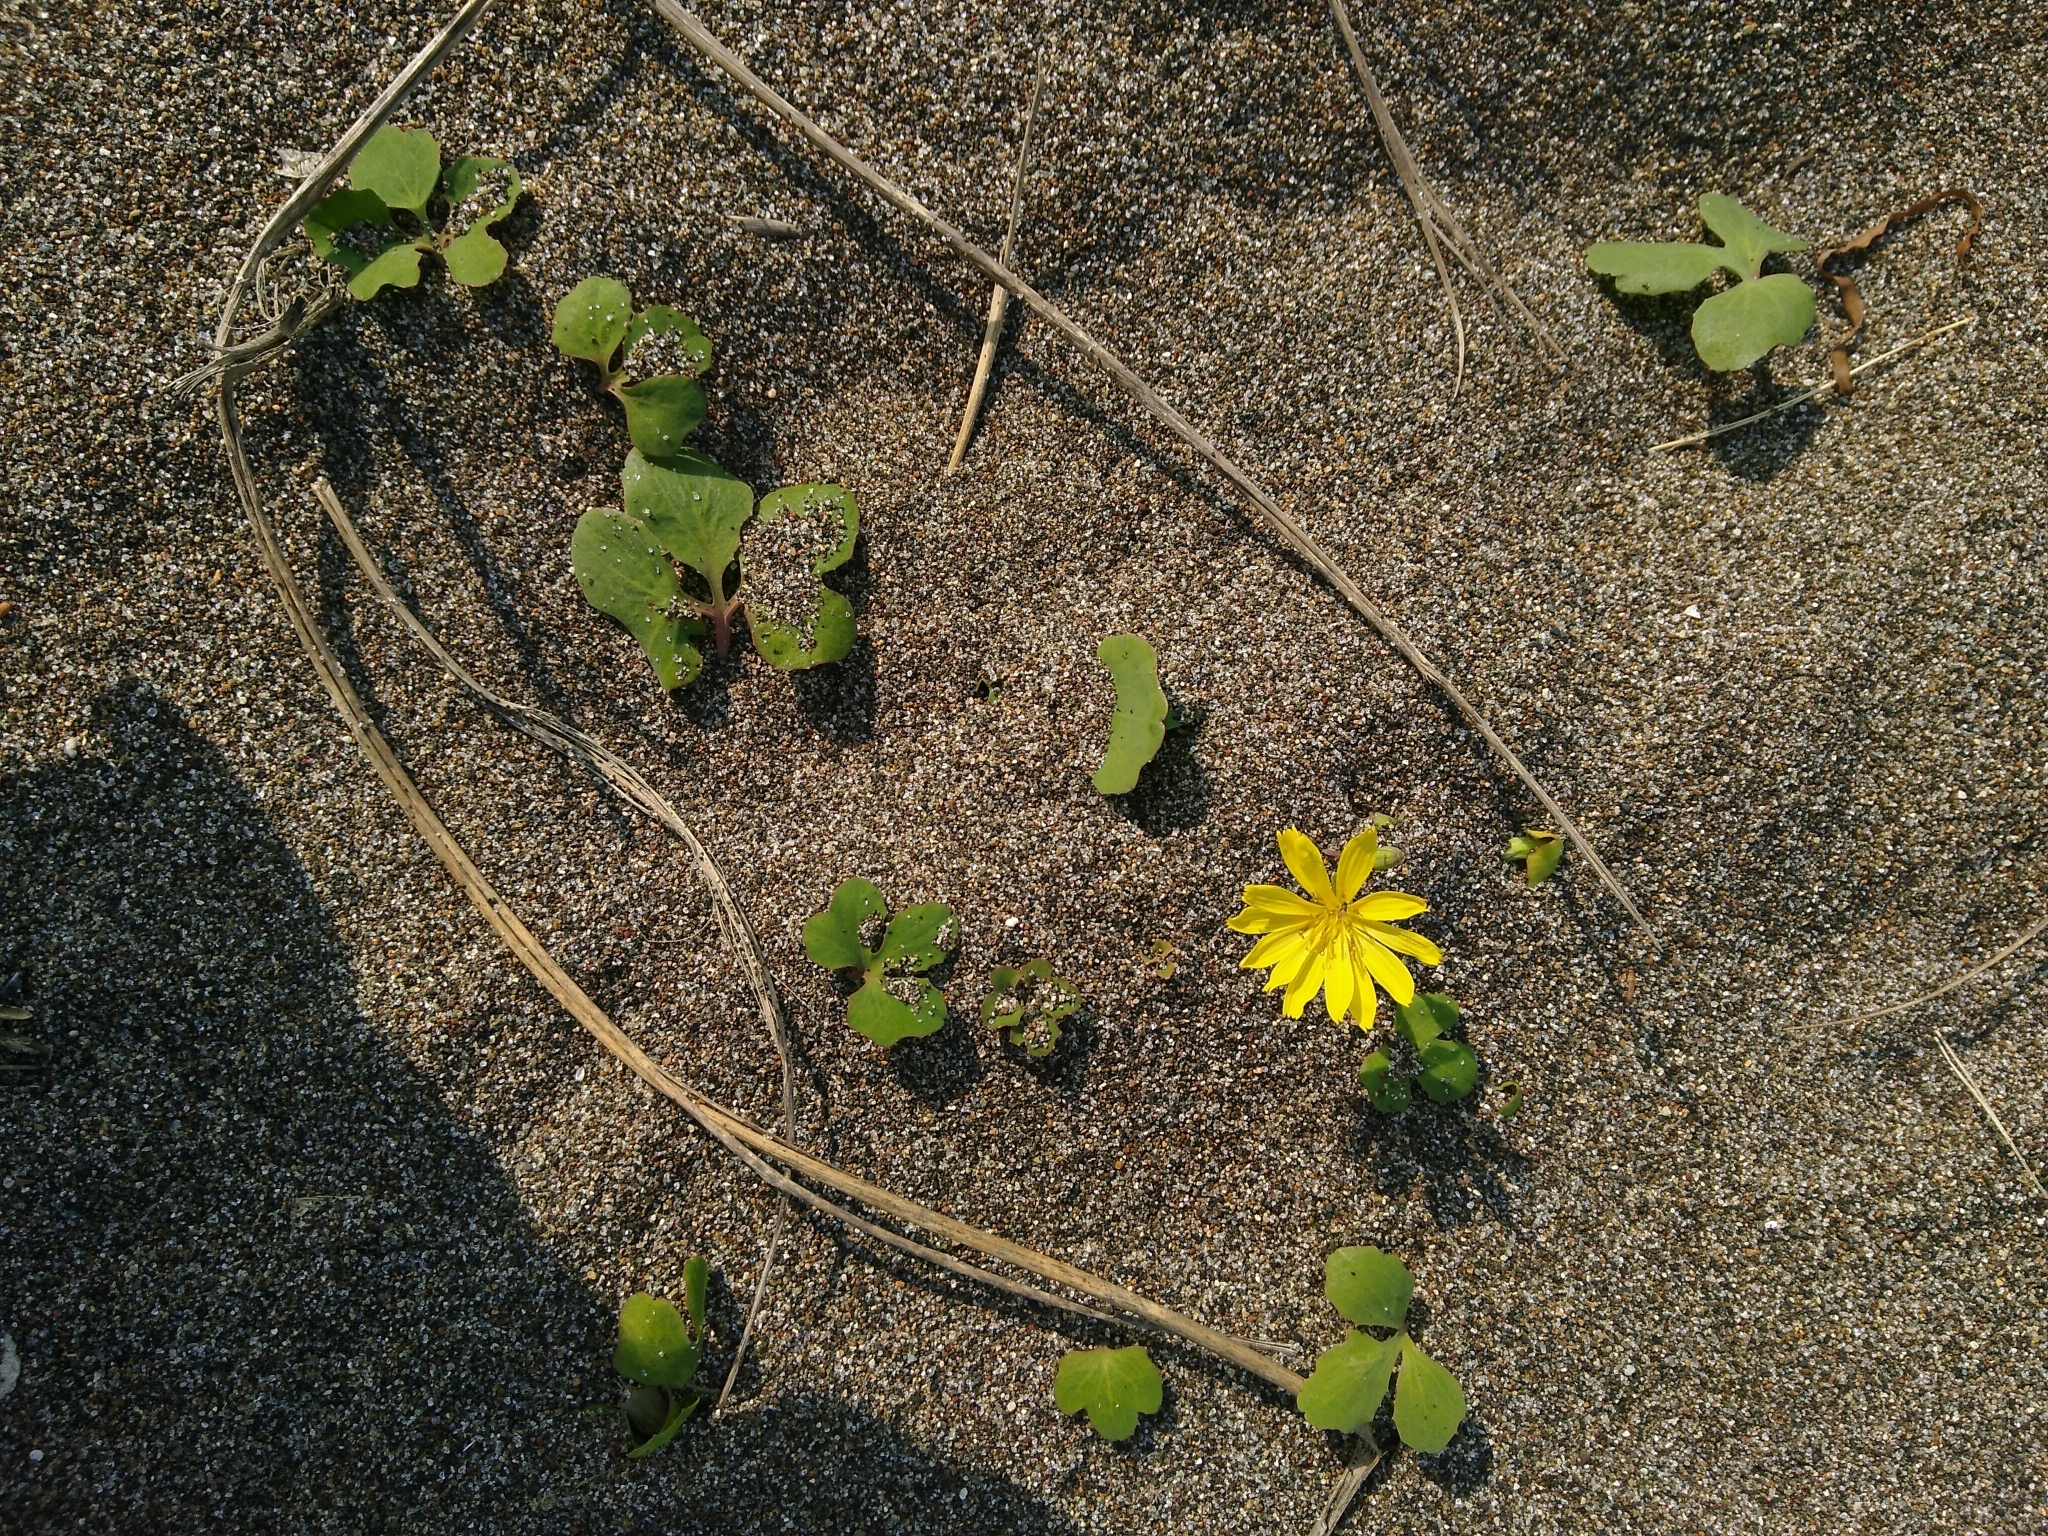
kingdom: Plantae
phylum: Tracheophyta
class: Magnoliopsida
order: Asterales
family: Asteraceae
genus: Ixeris
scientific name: Ixeris repens
